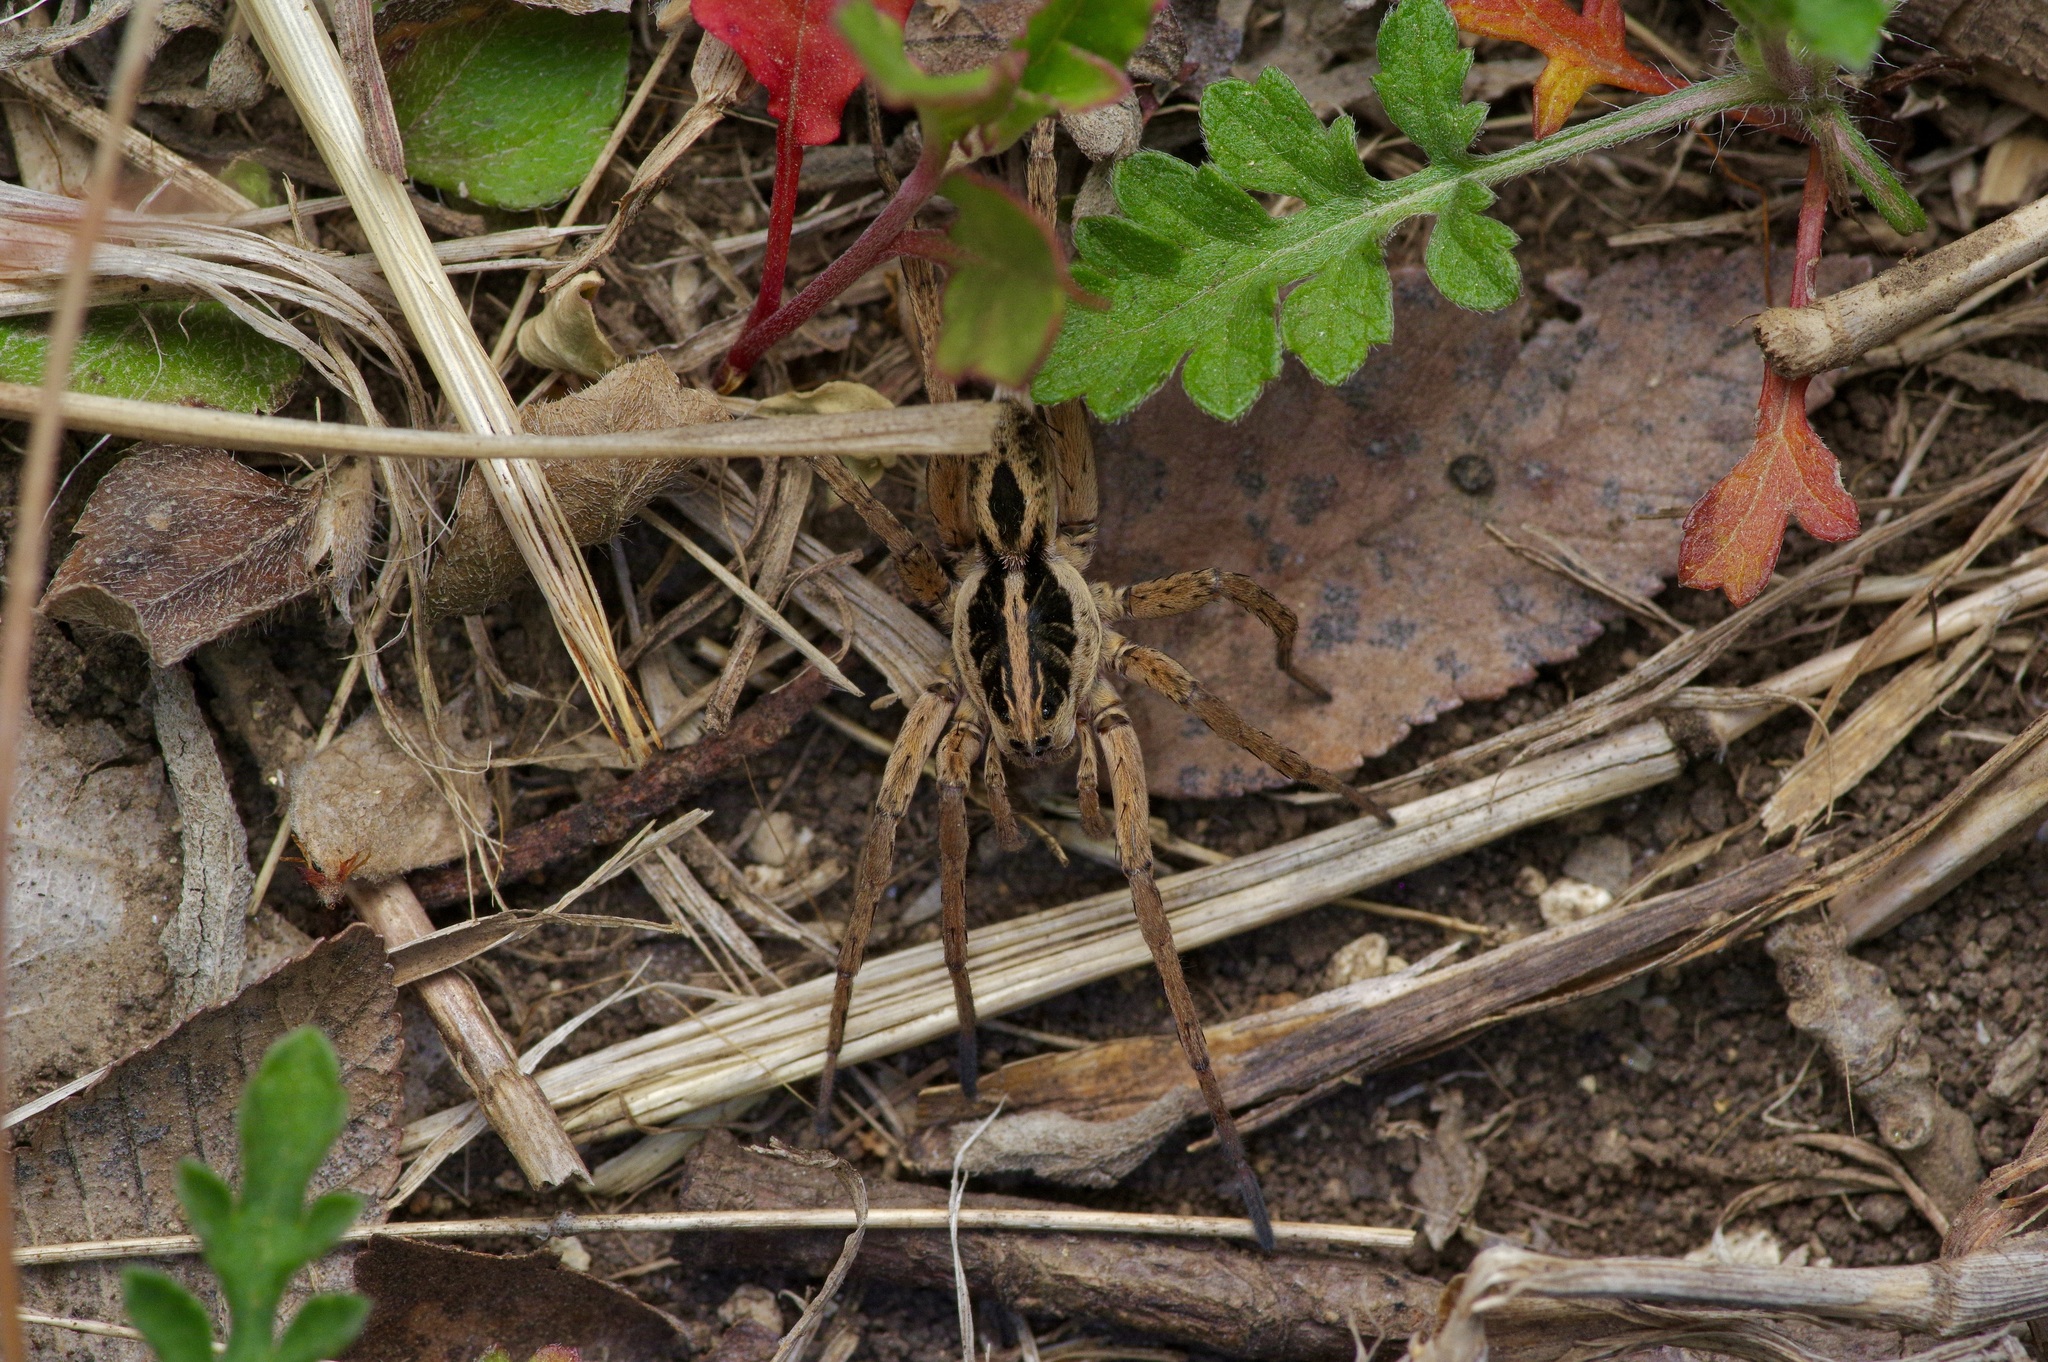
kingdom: Animalia
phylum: Arthropoda
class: Arachnida
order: Araneae
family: Lycosidae
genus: Tigrosa
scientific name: Tigrosa annexa
